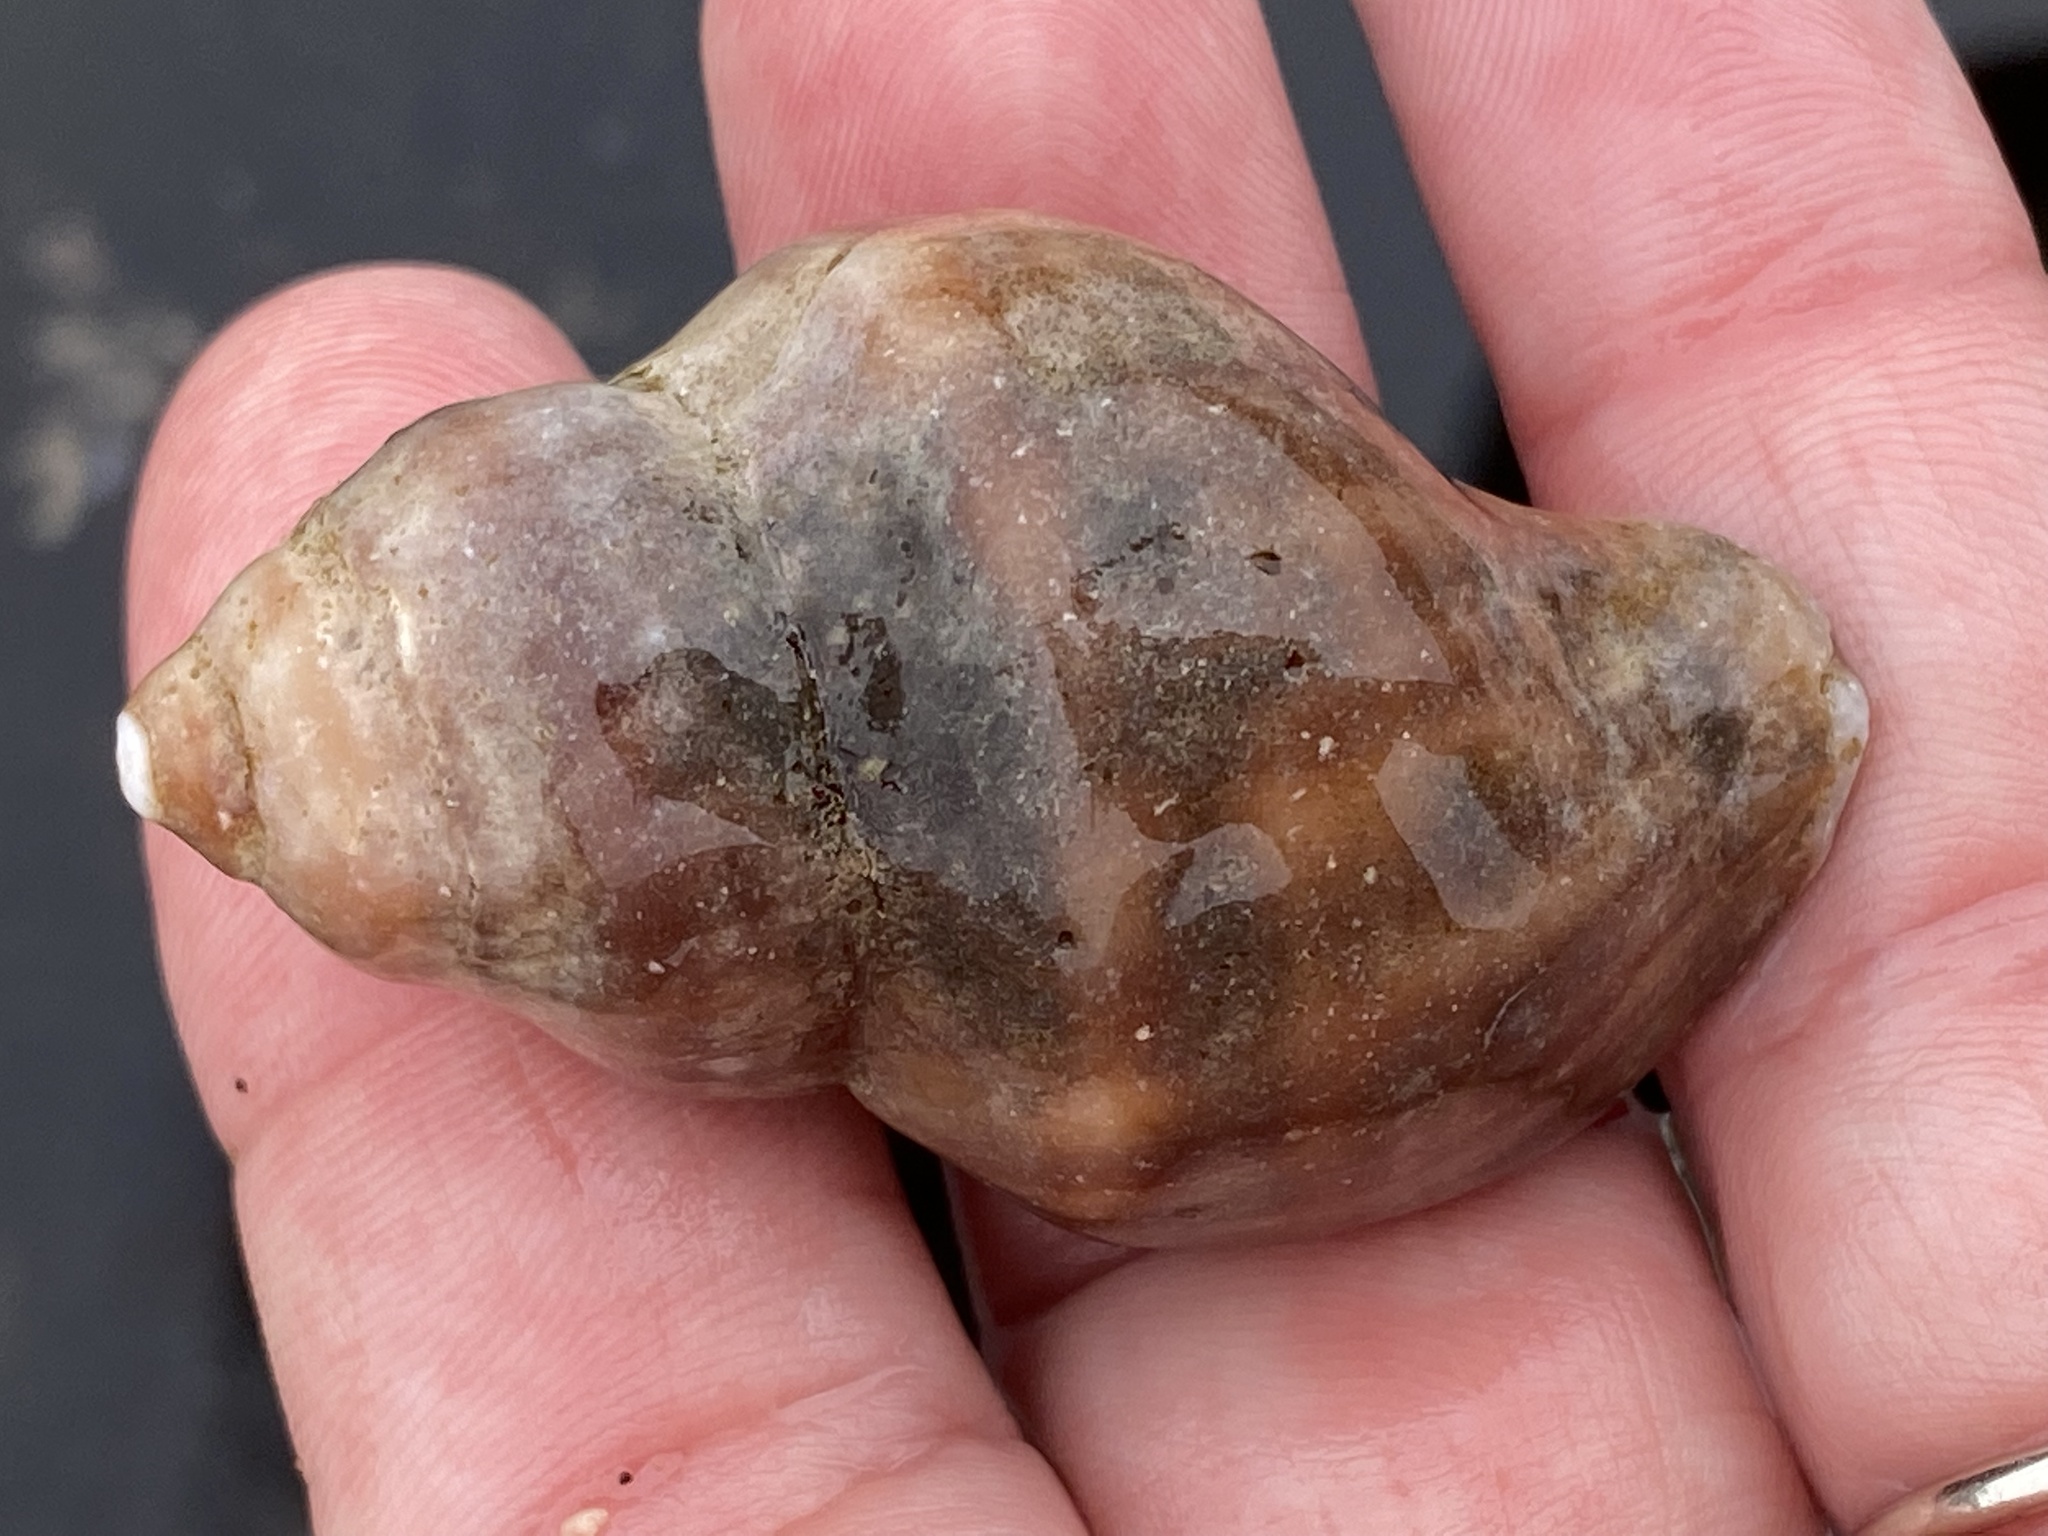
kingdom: Animalia
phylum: Mollusca
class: Gastropoda
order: Neogastropoda
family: Muricidae
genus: Nucella
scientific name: Nucella lamellosa
